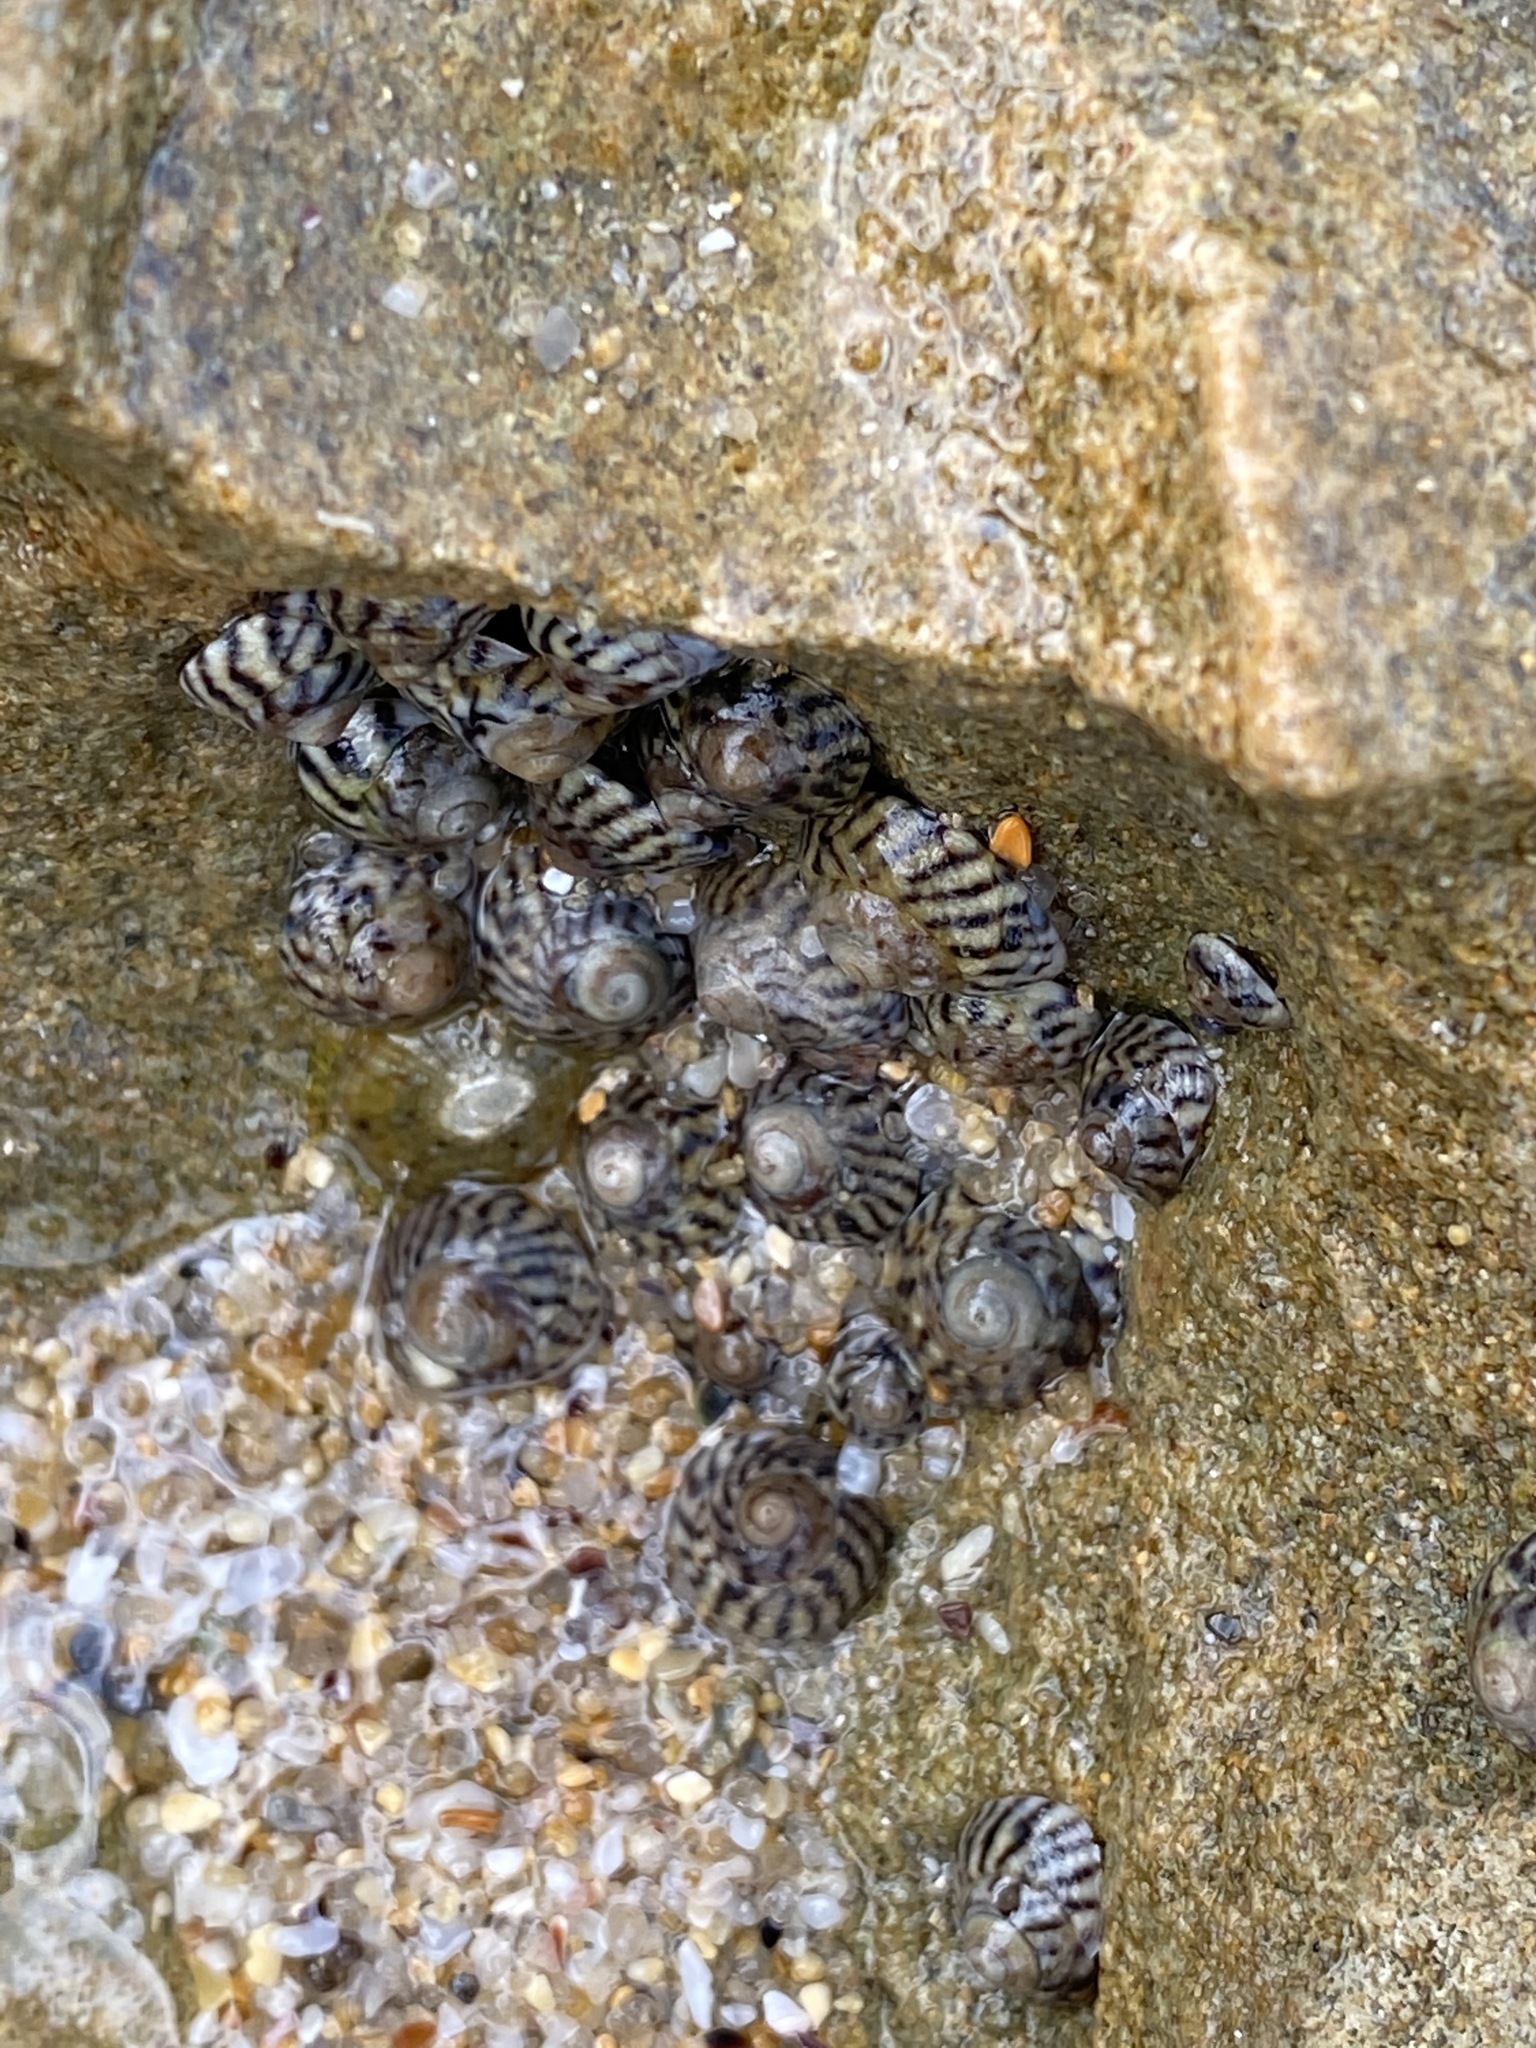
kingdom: Animalia
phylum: Mollusca
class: Gastropoda
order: Littorinimorpha
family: Littorinidae
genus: Bembicium
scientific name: Bembicium nanum
